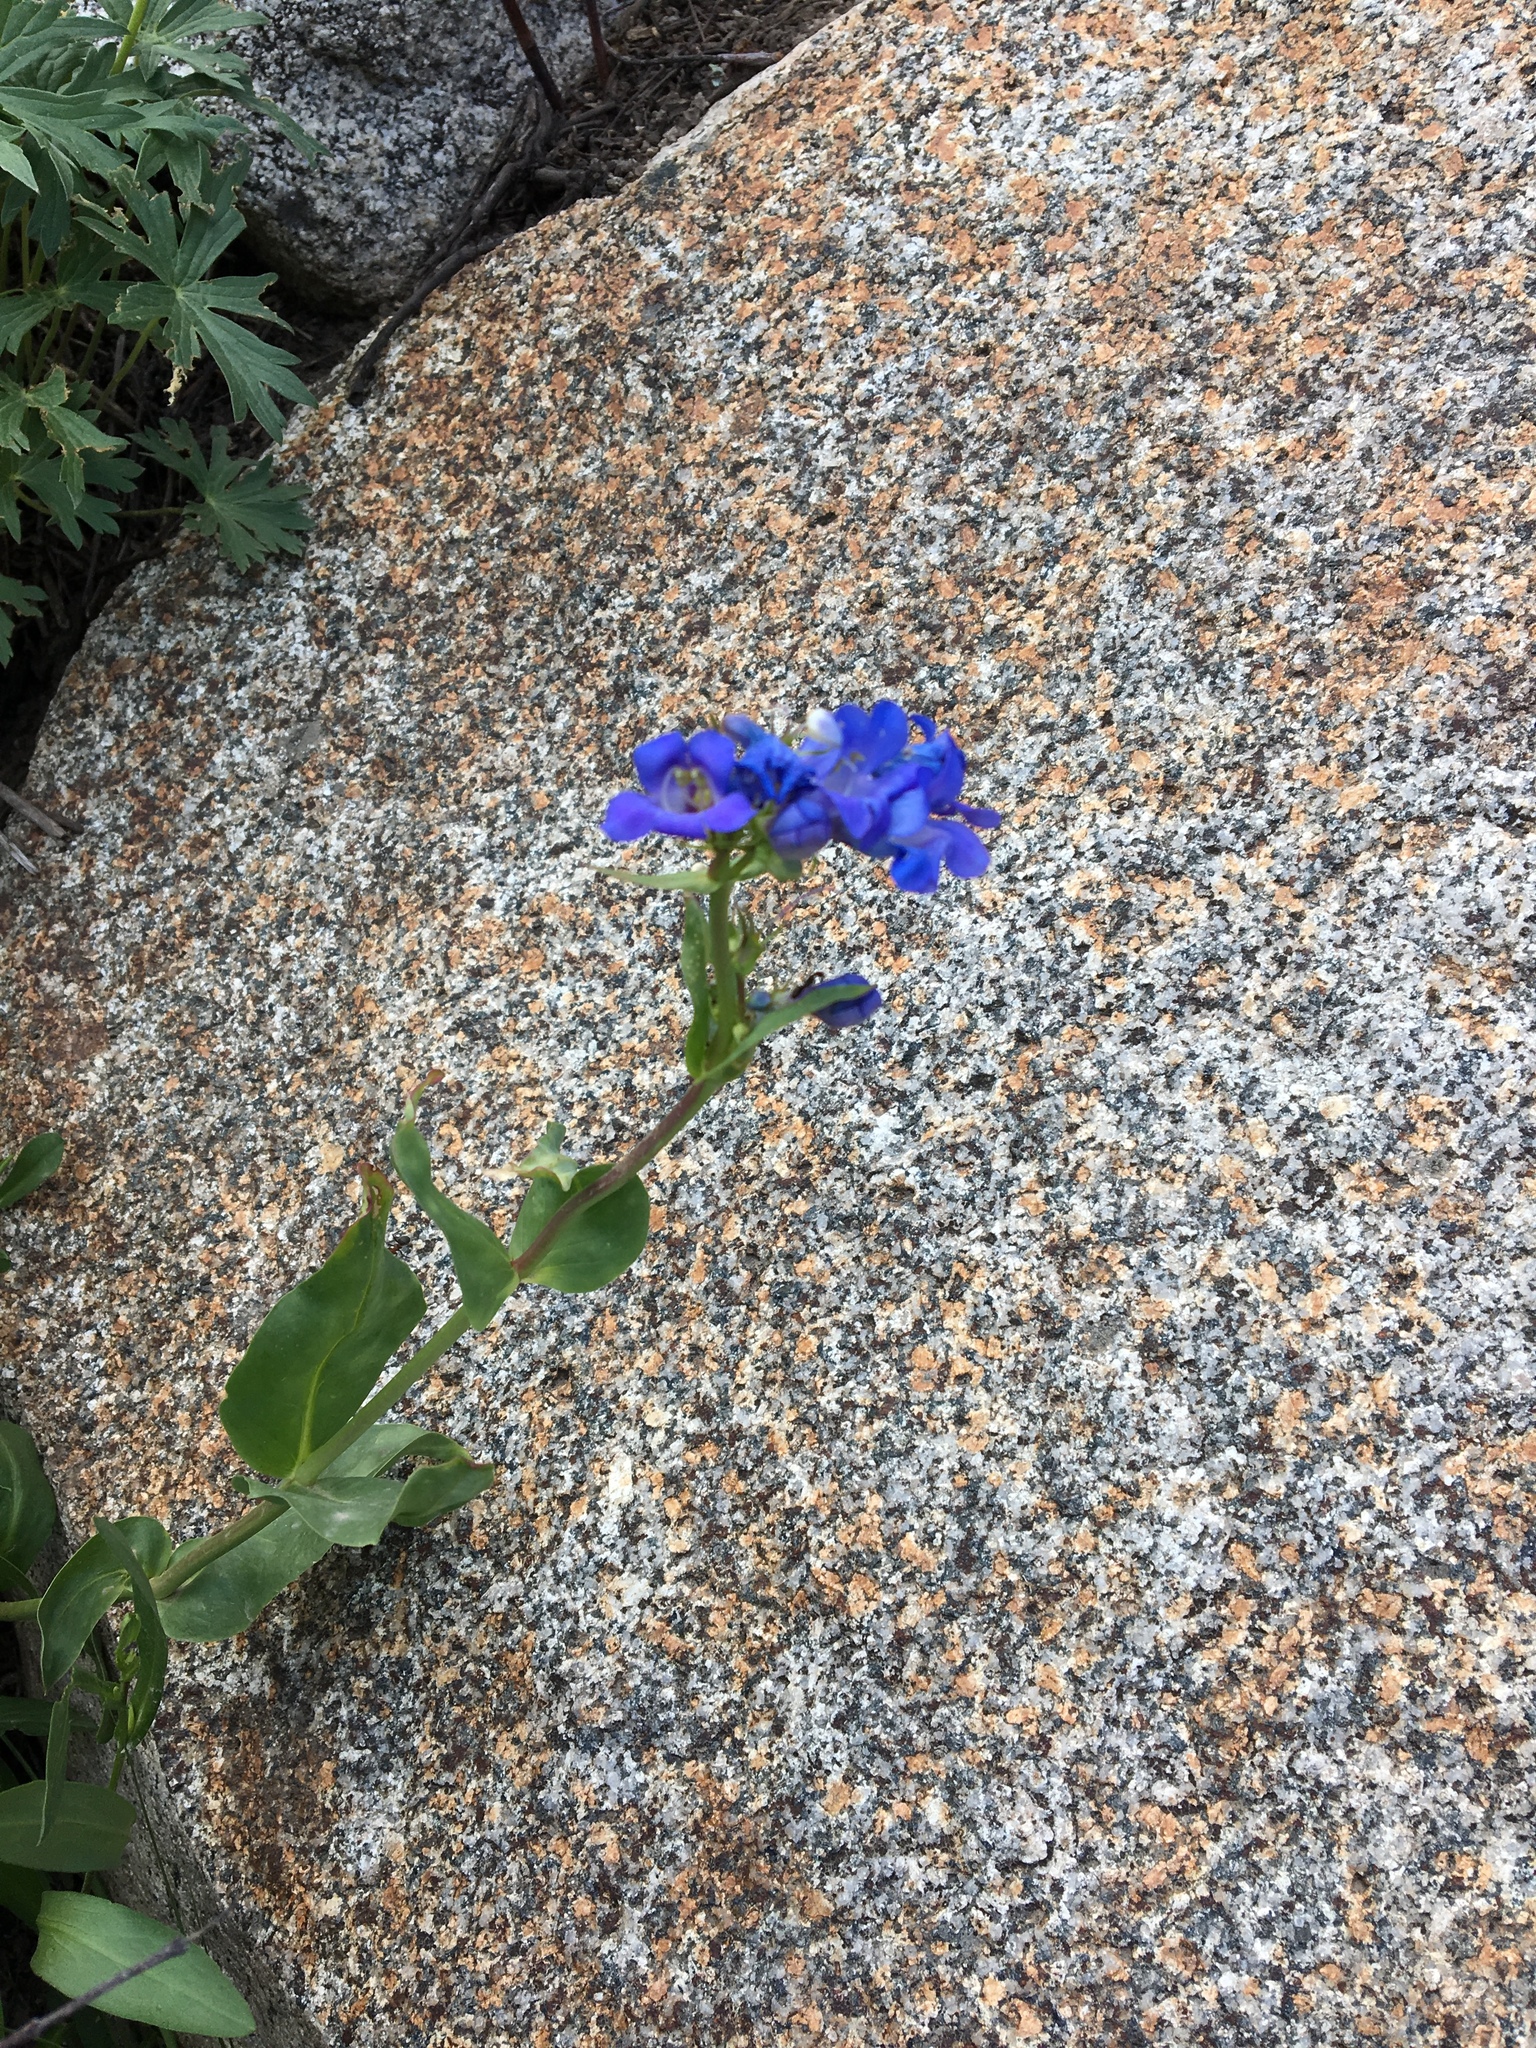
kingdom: Plantae
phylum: Tracheophyta
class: Magnoliopsida
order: Lamiales
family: Plantaginaceae
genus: Penstemon
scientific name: Penstemon cyananthus
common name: Wasatch penstemon
